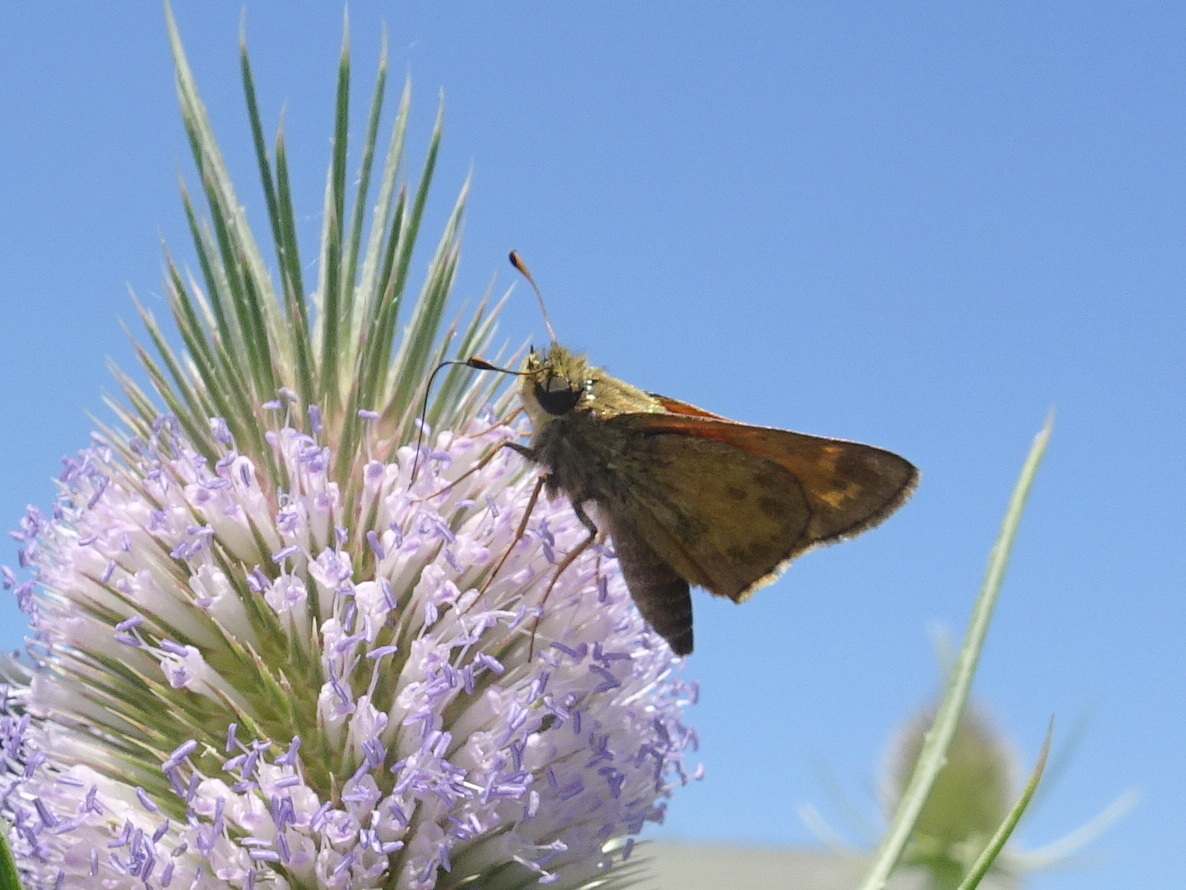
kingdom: Animalia
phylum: Arthropoda
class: Insecta
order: Lepidoptera
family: Hesperiidae
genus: Atalopedes
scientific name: Atalopedes
